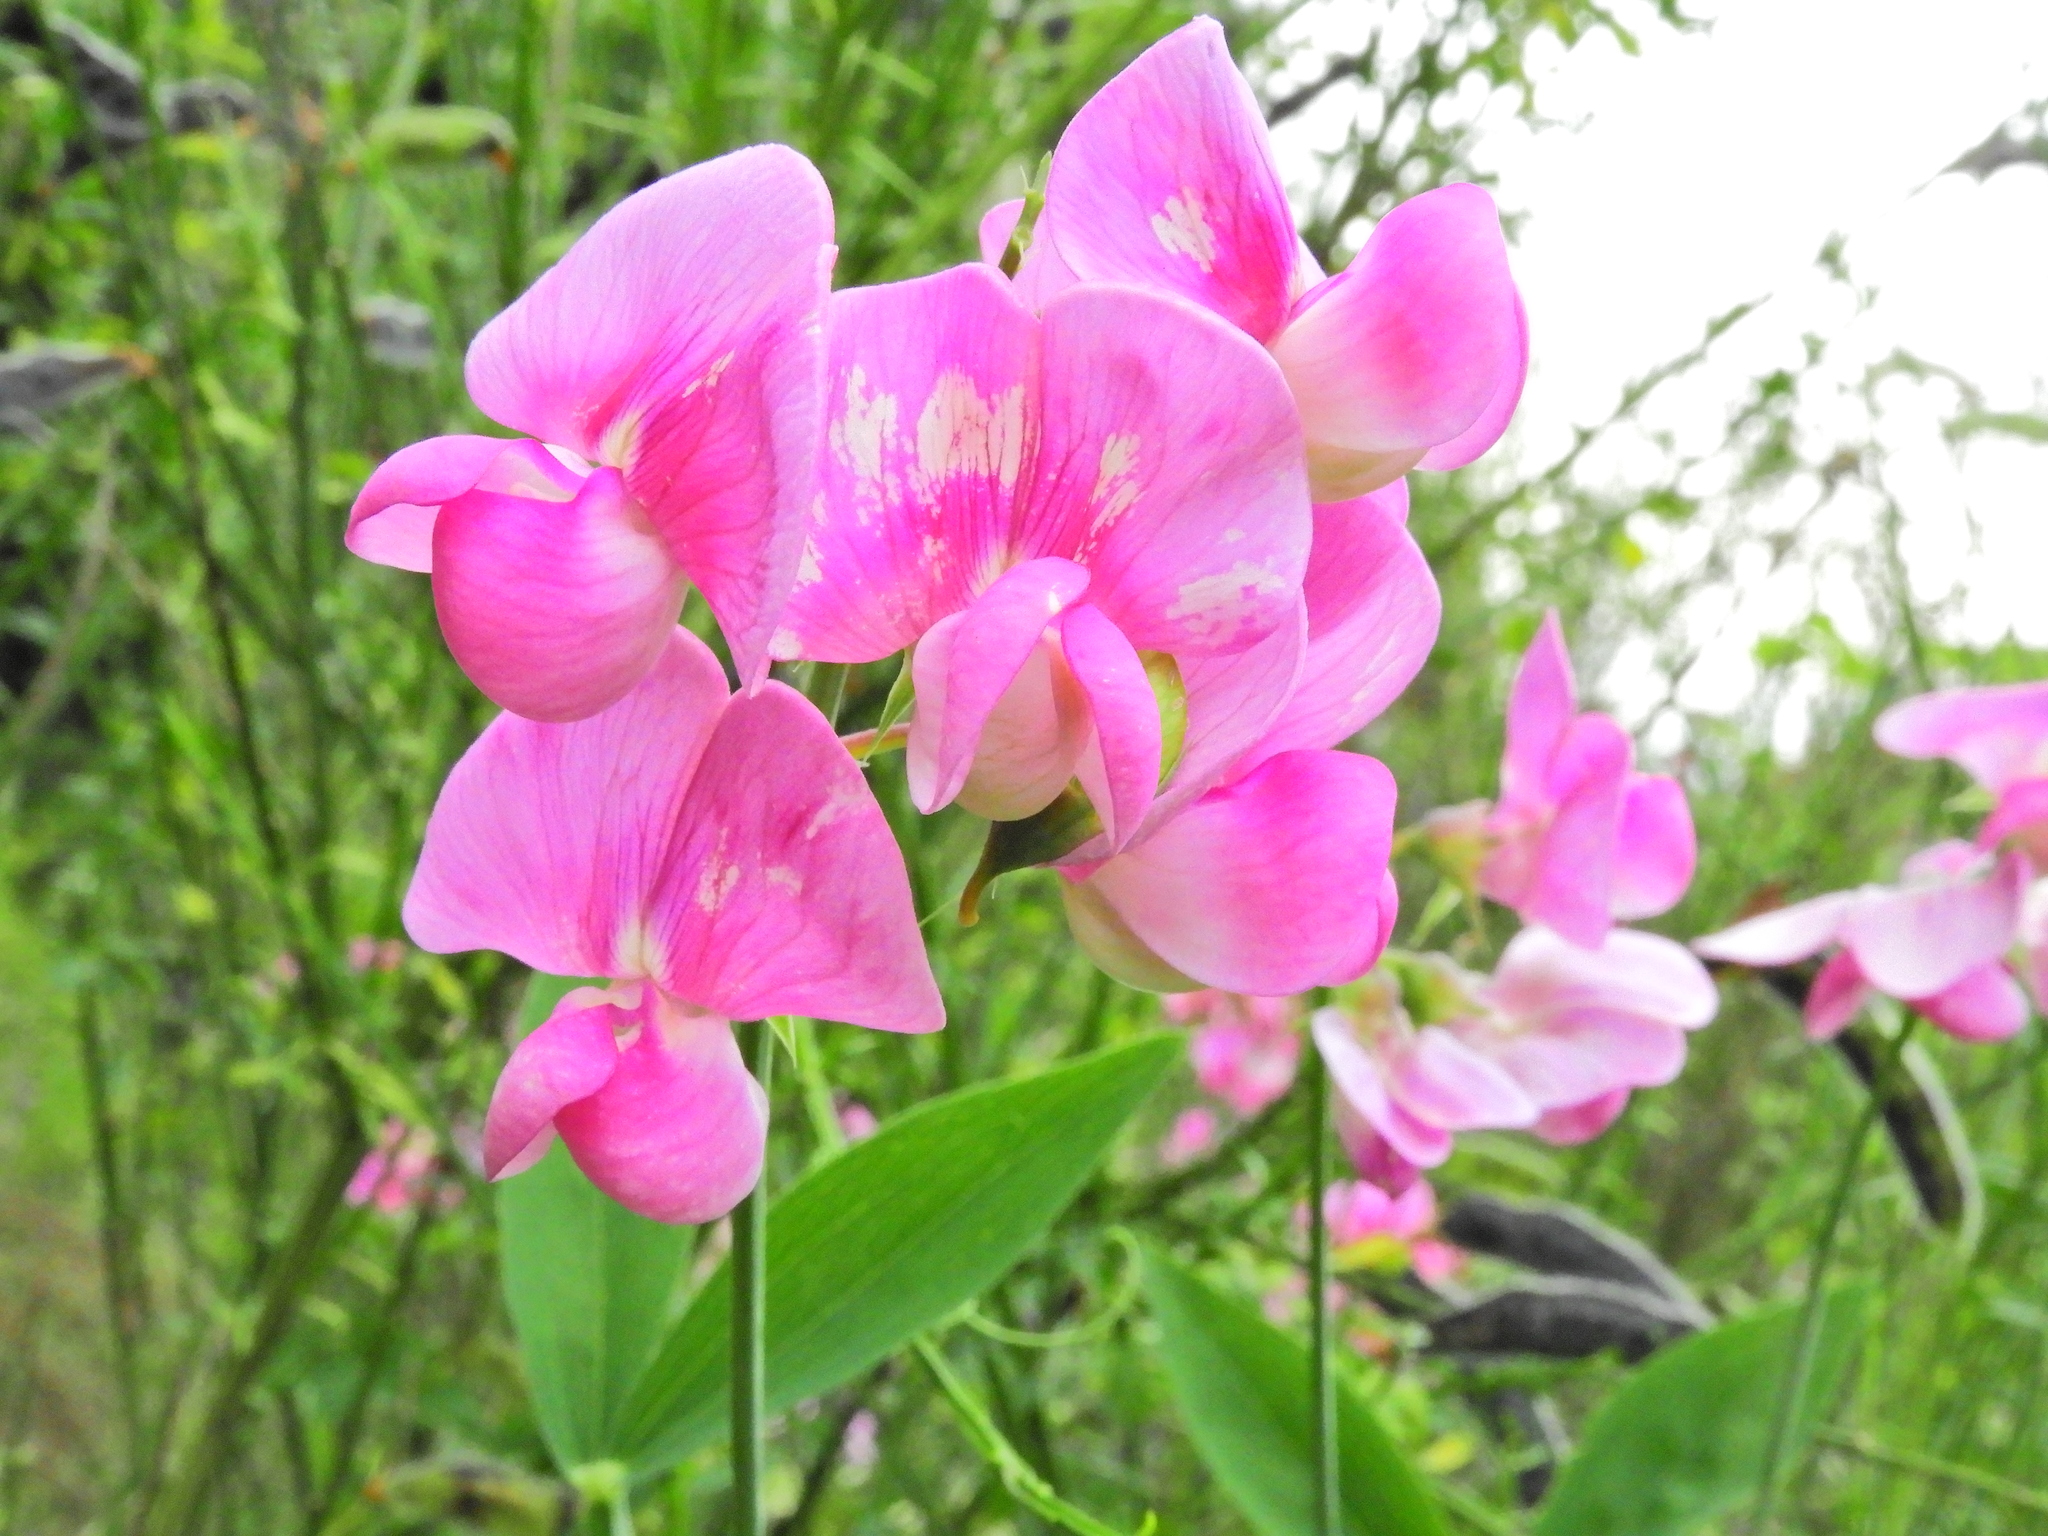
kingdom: Plantae
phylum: Tracheophyta
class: Magnoliopsida
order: Fabales
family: Fabaceae
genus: Lathyrus
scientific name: Lathyrus latifolius
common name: Perennial pea
